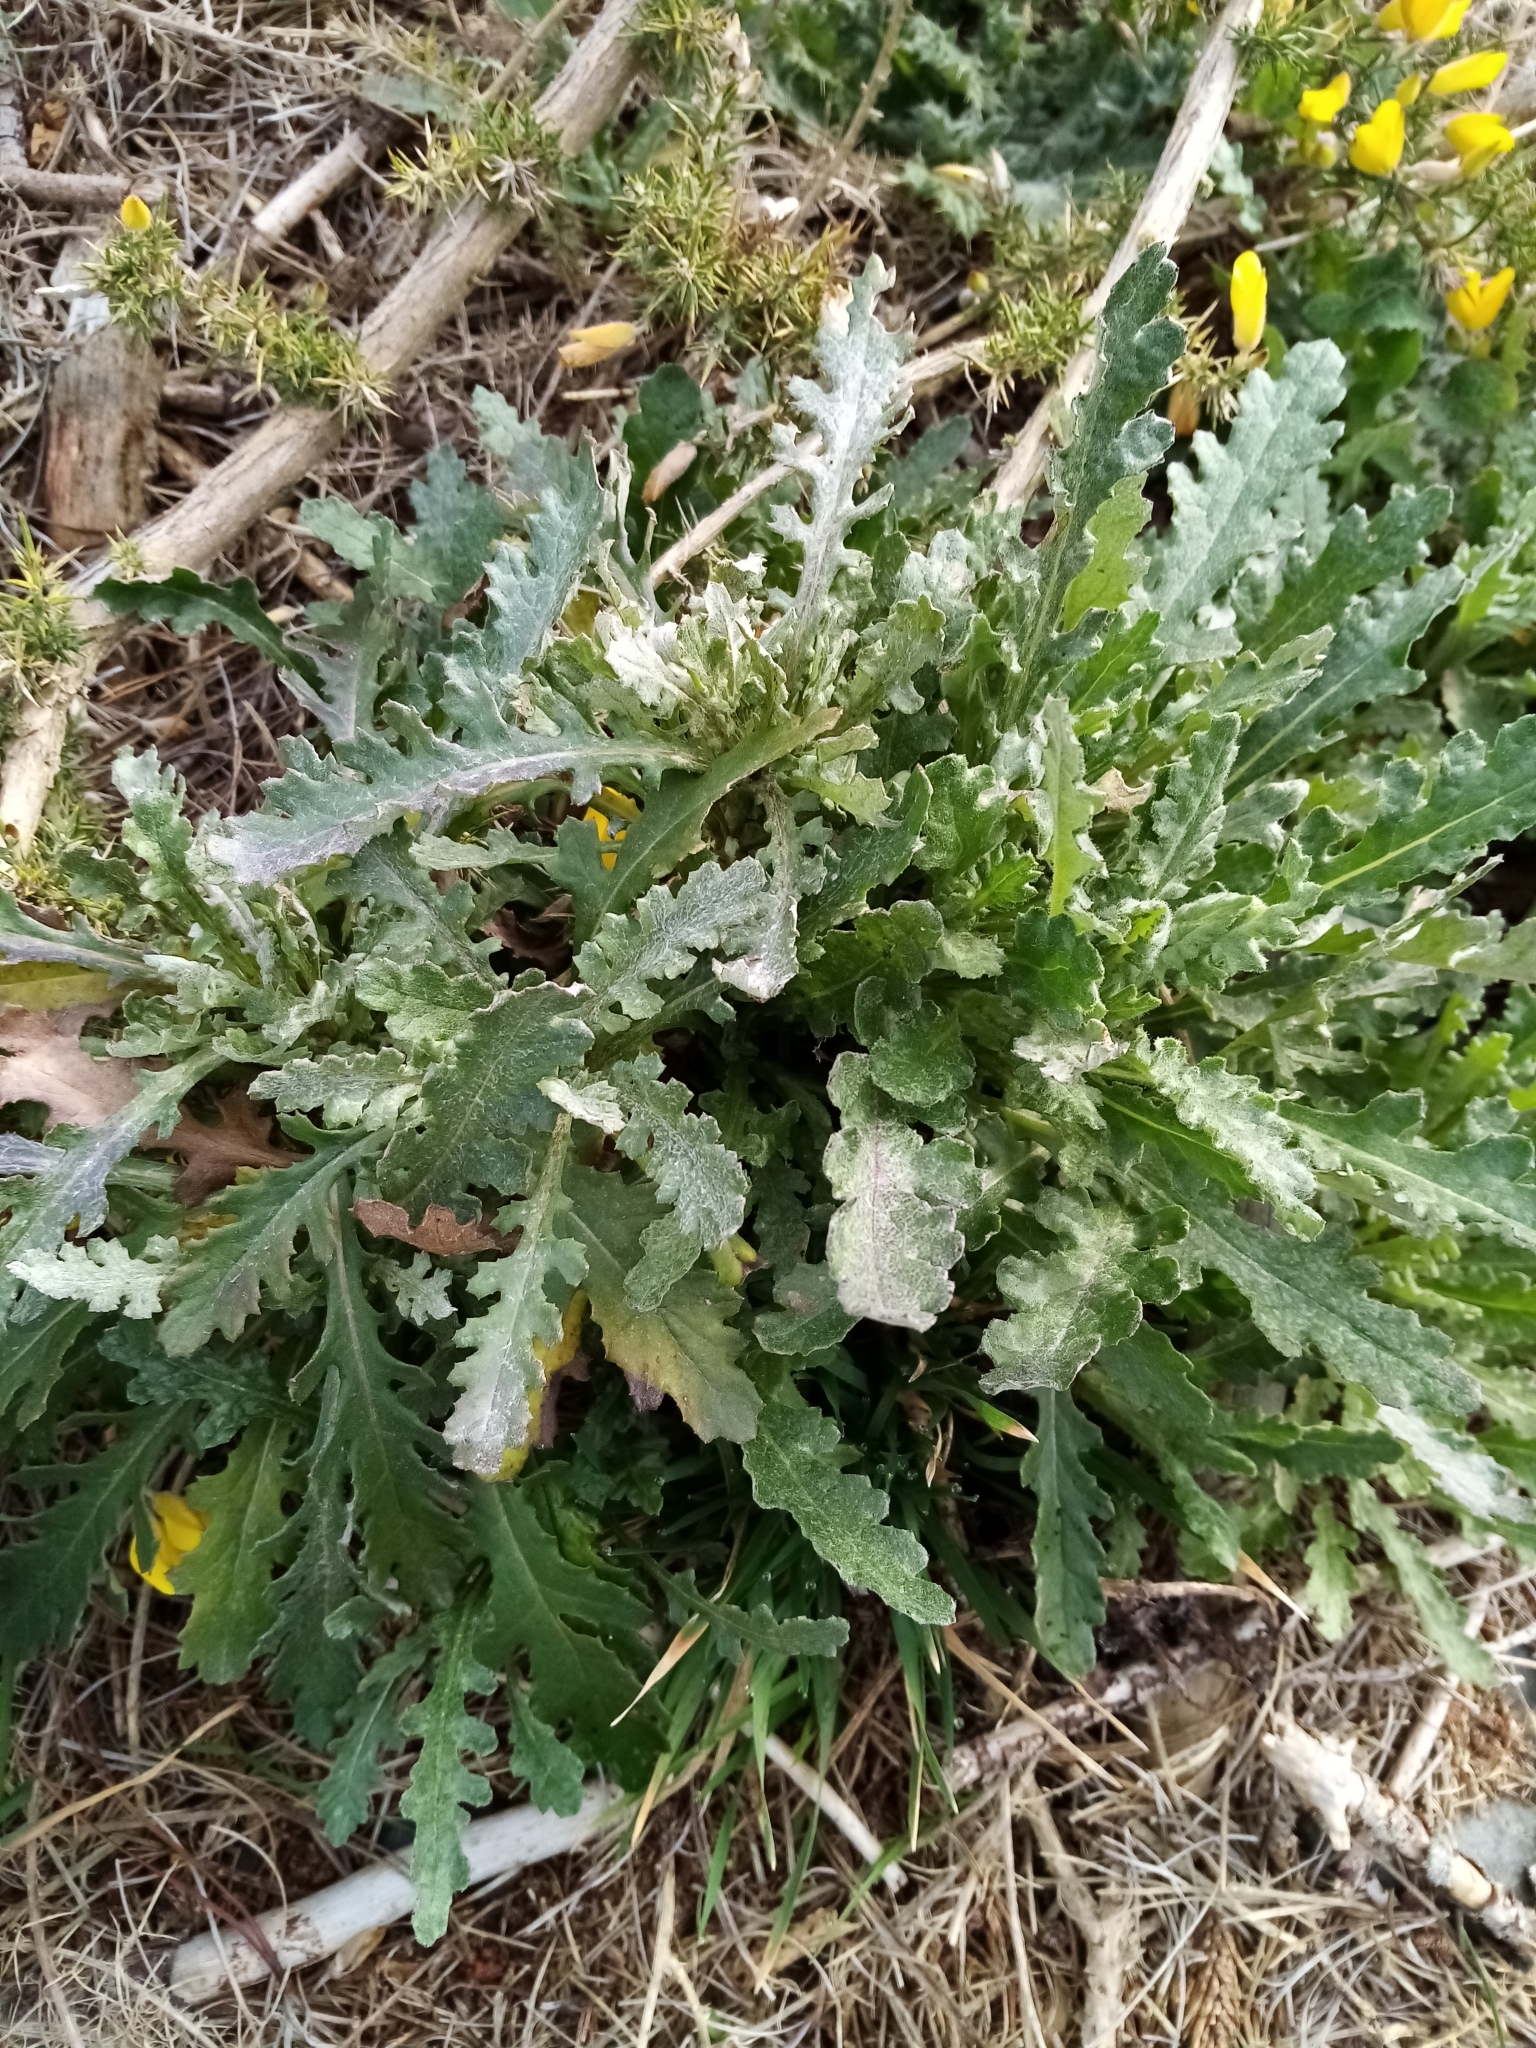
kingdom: Plantae
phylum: Tracheophyta
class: Magnoliopsida
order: Asterales
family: Asteraceae
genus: Senecio
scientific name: Senecio glomeratus
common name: Cutleaf burnweed
